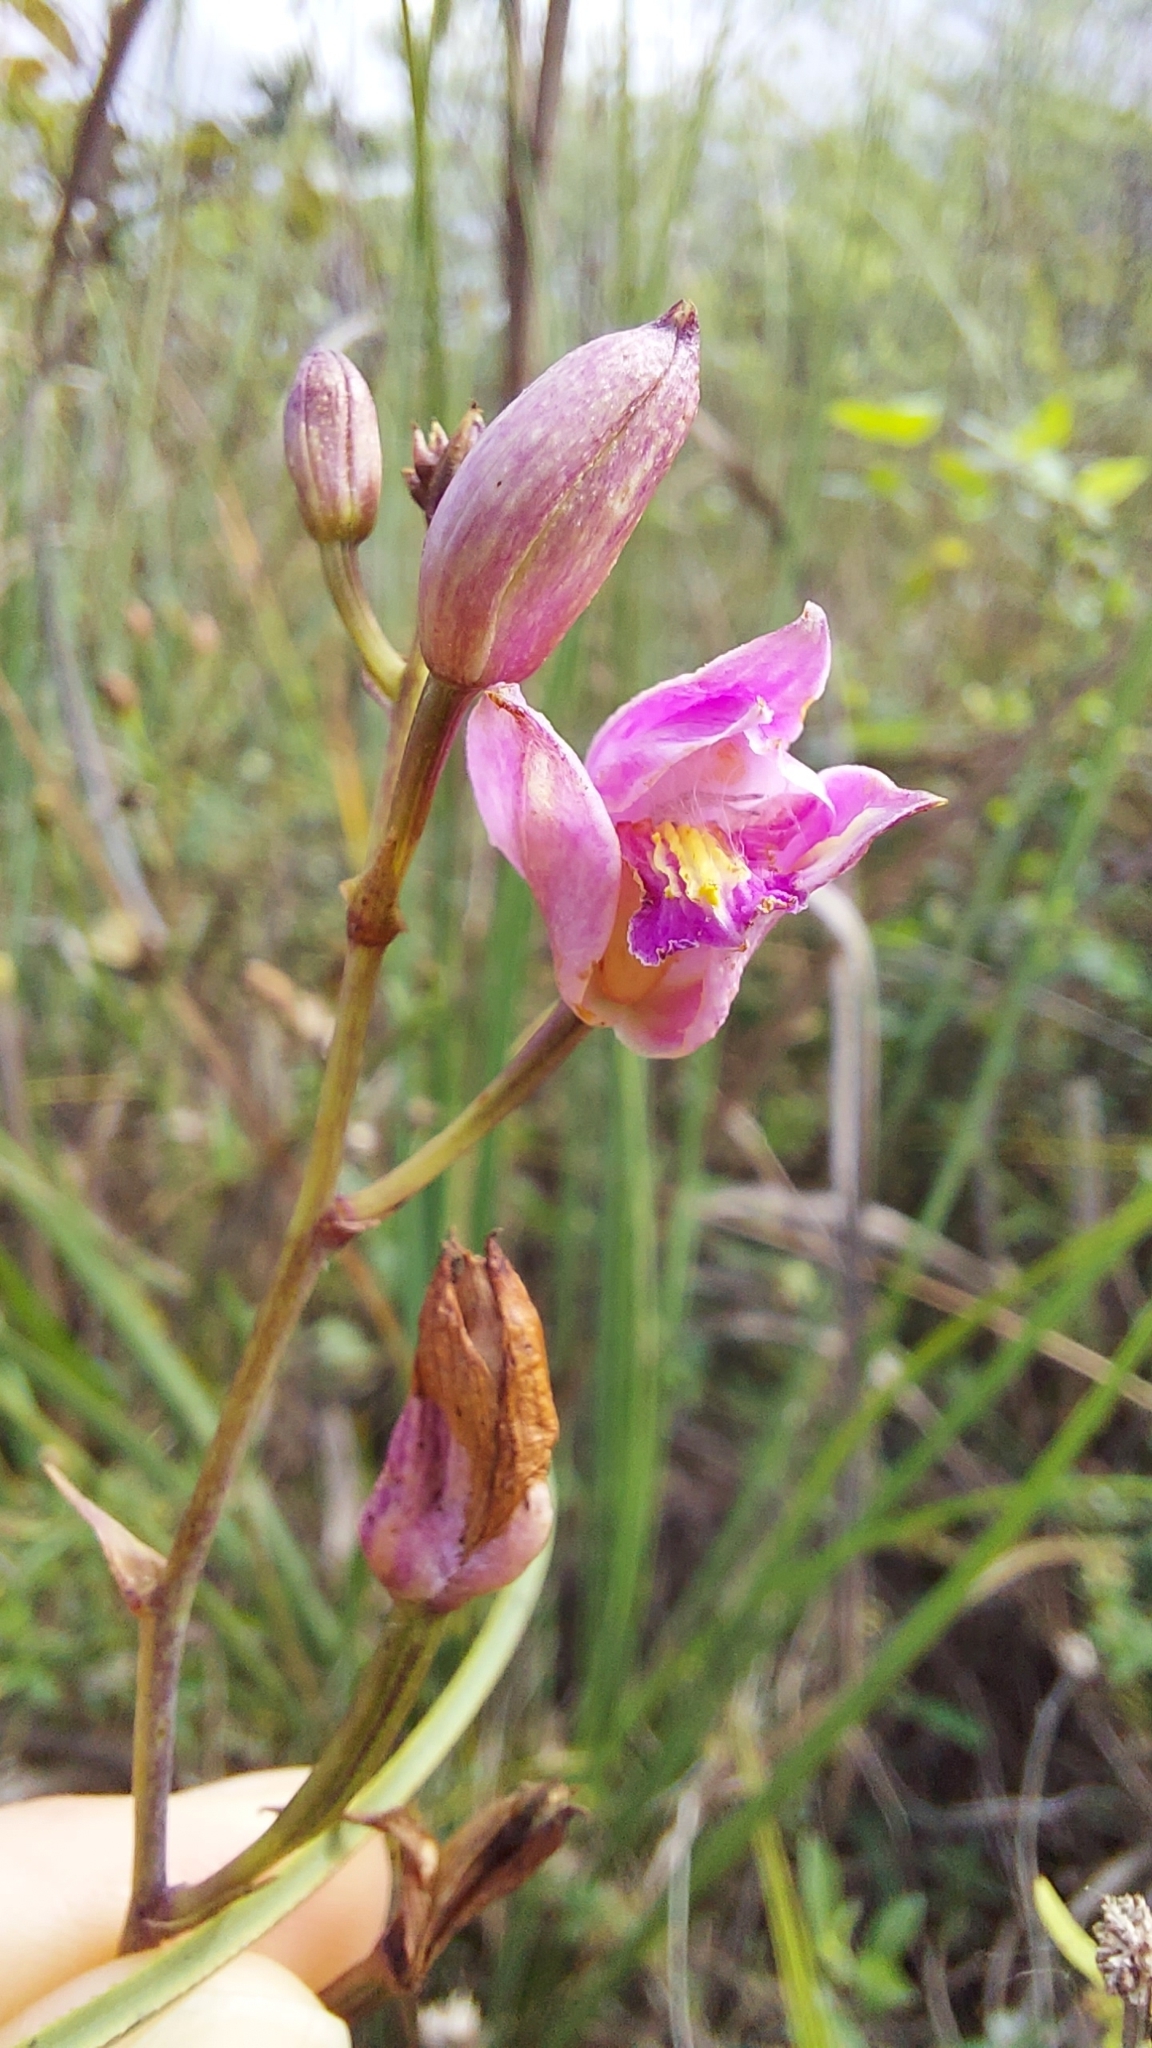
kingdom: Plantae
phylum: Tracheophyta
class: Liliopsida
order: Asparagales
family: Orchidaceae
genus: Bletia
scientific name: Bletia purpurea
